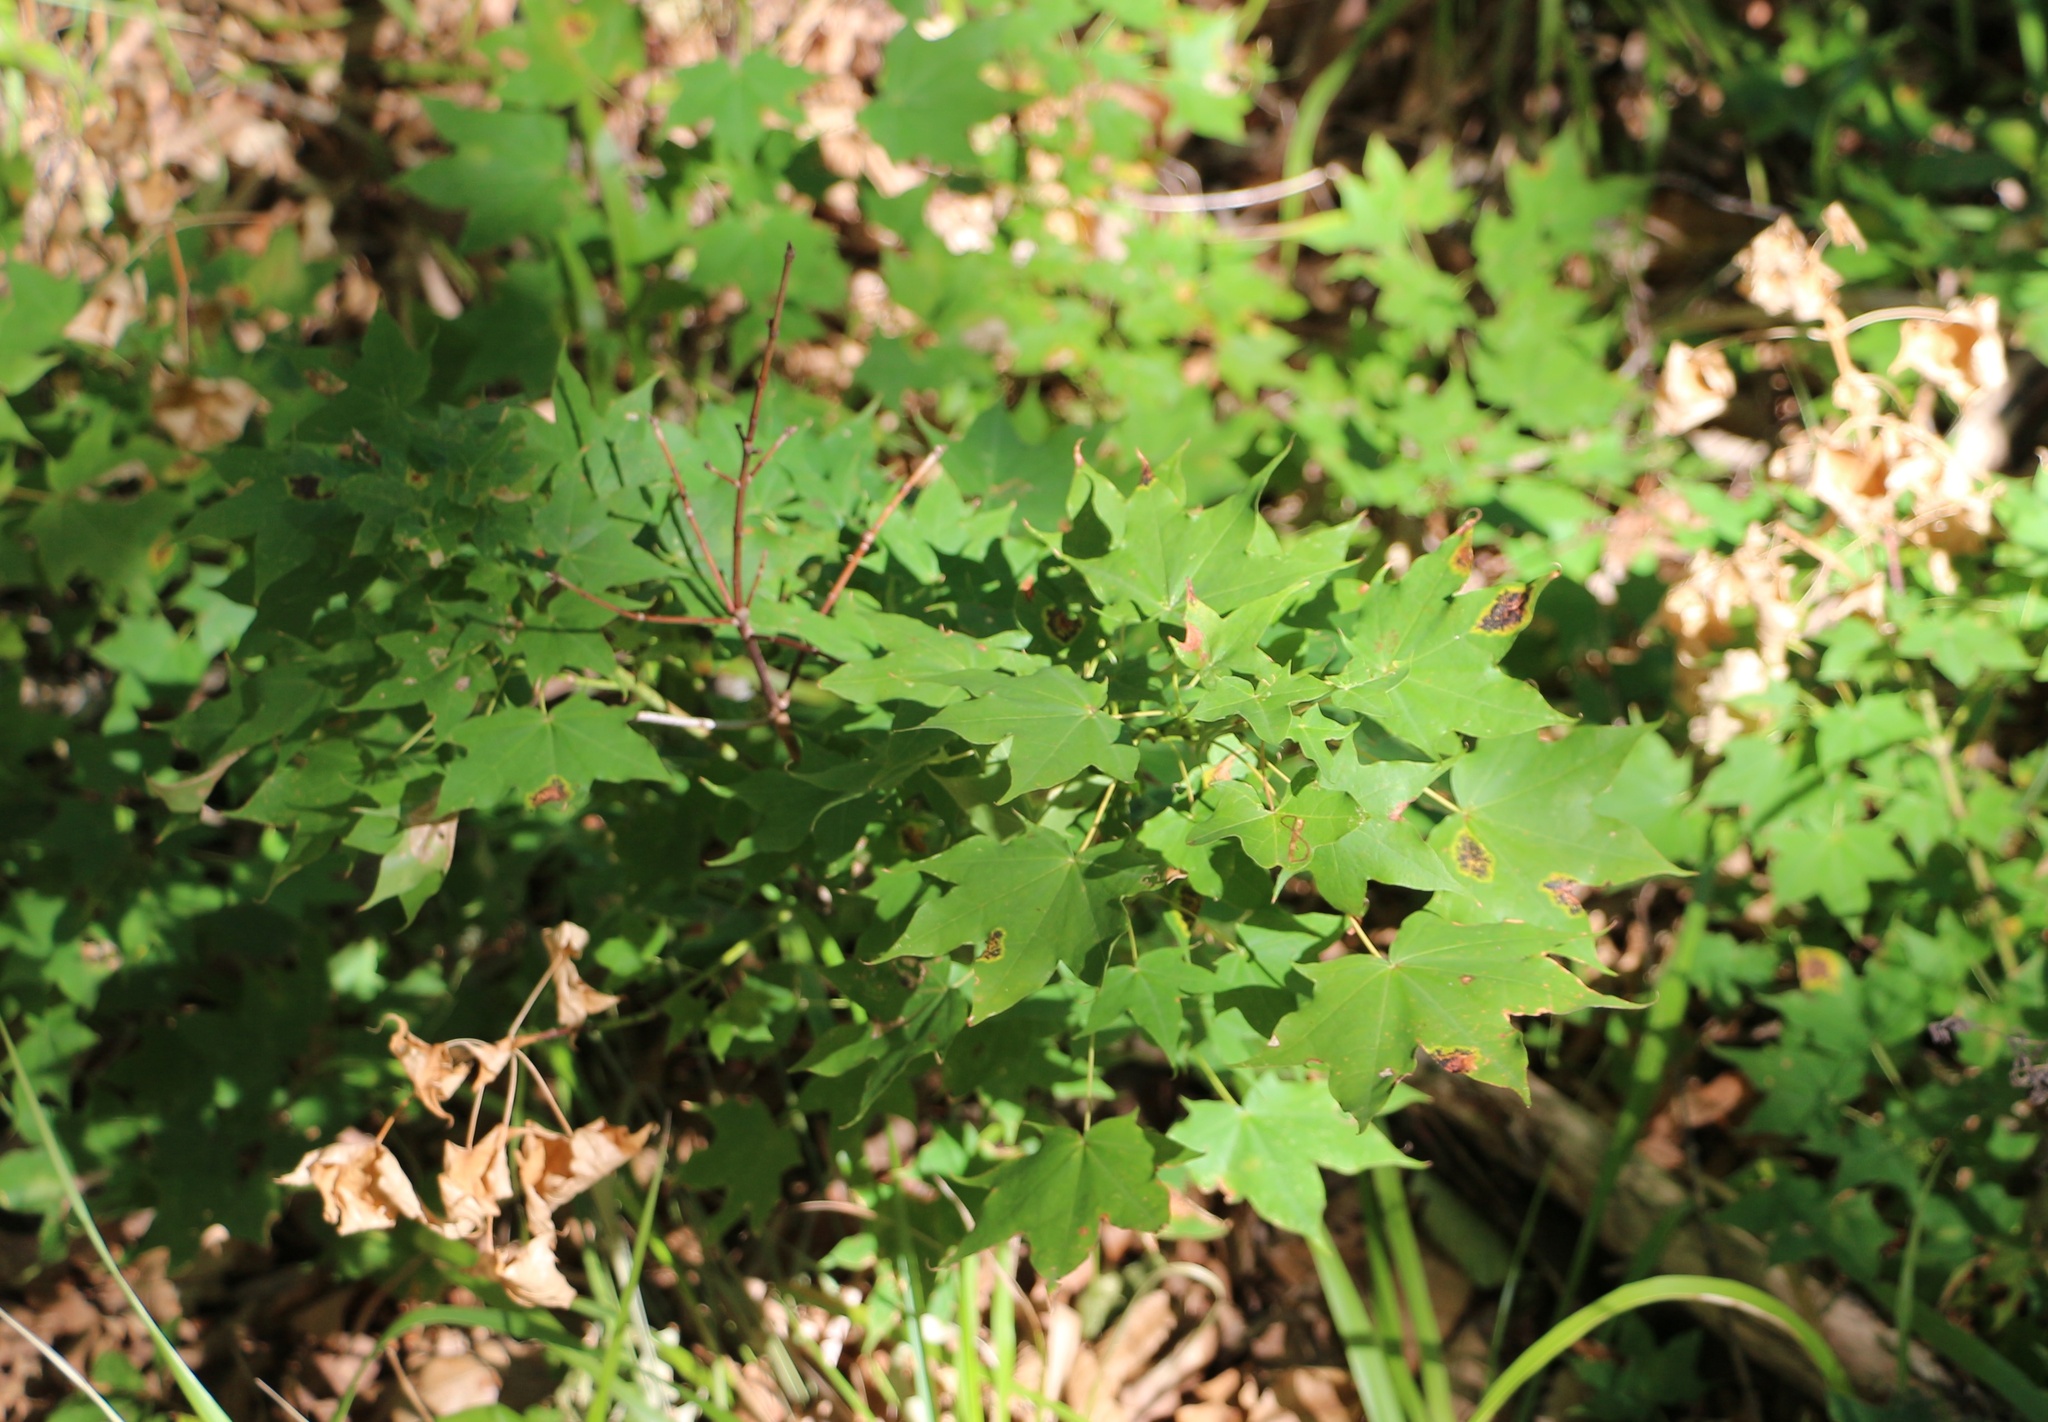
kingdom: Plantae
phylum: Tracheophyta
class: Magnoliopsida
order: Sapindales
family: Sapindaceae
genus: Acer
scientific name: Acer cappadocicum
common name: Cappadocian maple
